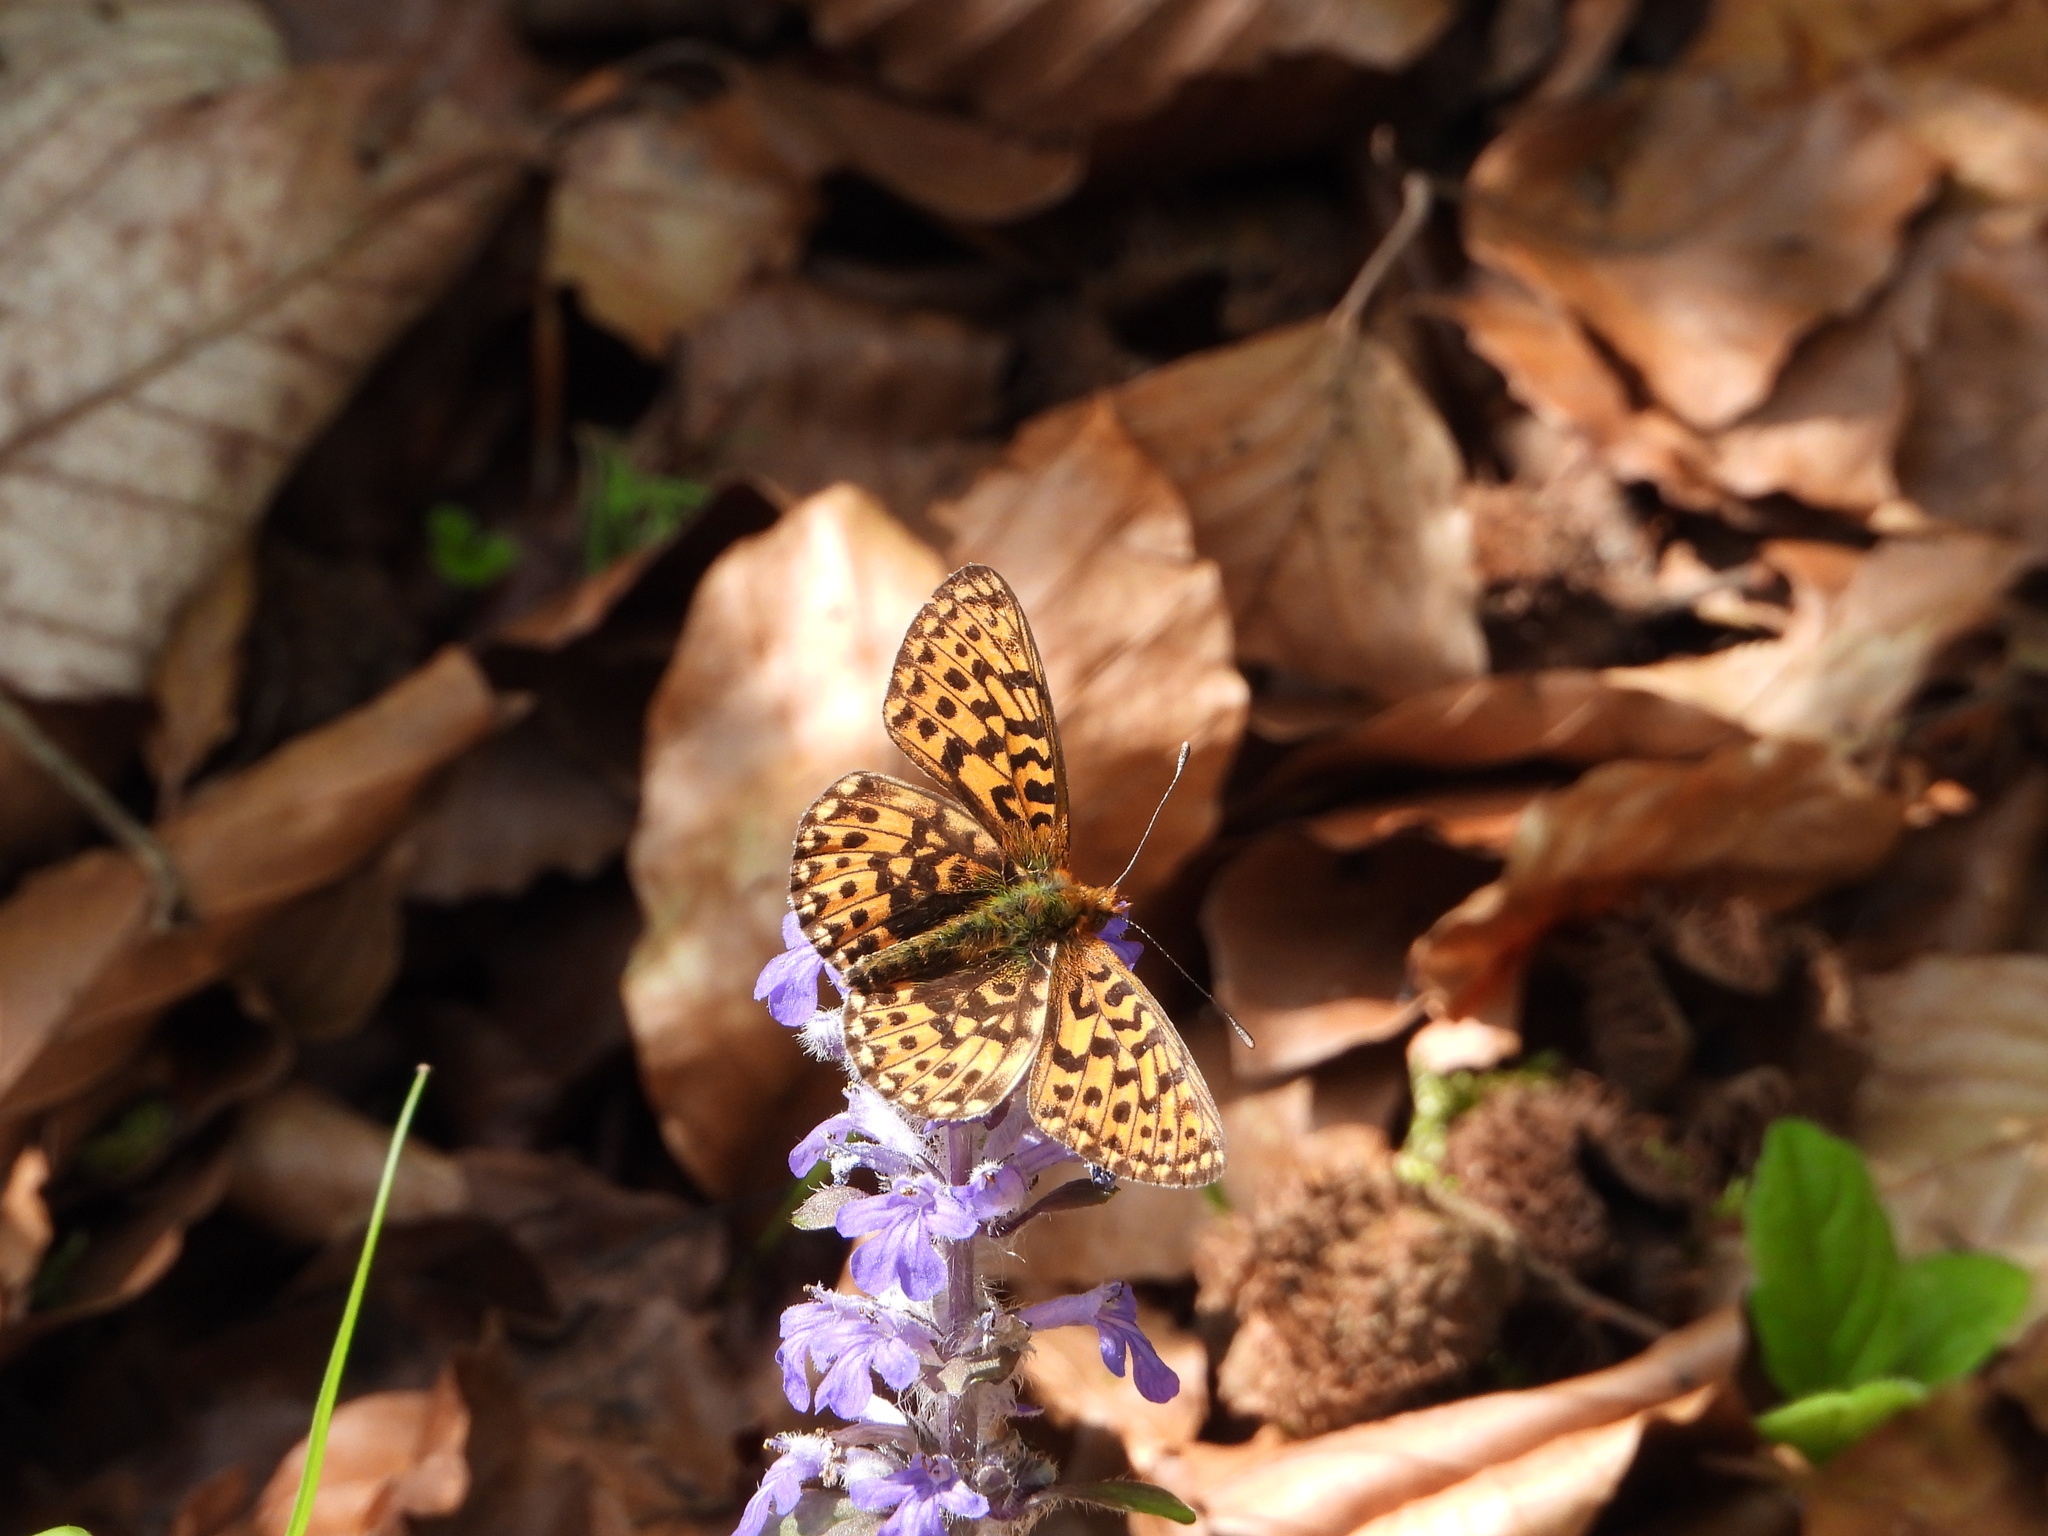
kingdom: Animalia
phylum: Arthropoda
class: Insecta
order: Lepidoptera
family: Nymphalidae
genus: Clossiana
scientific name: Clossiana euphrosyne
